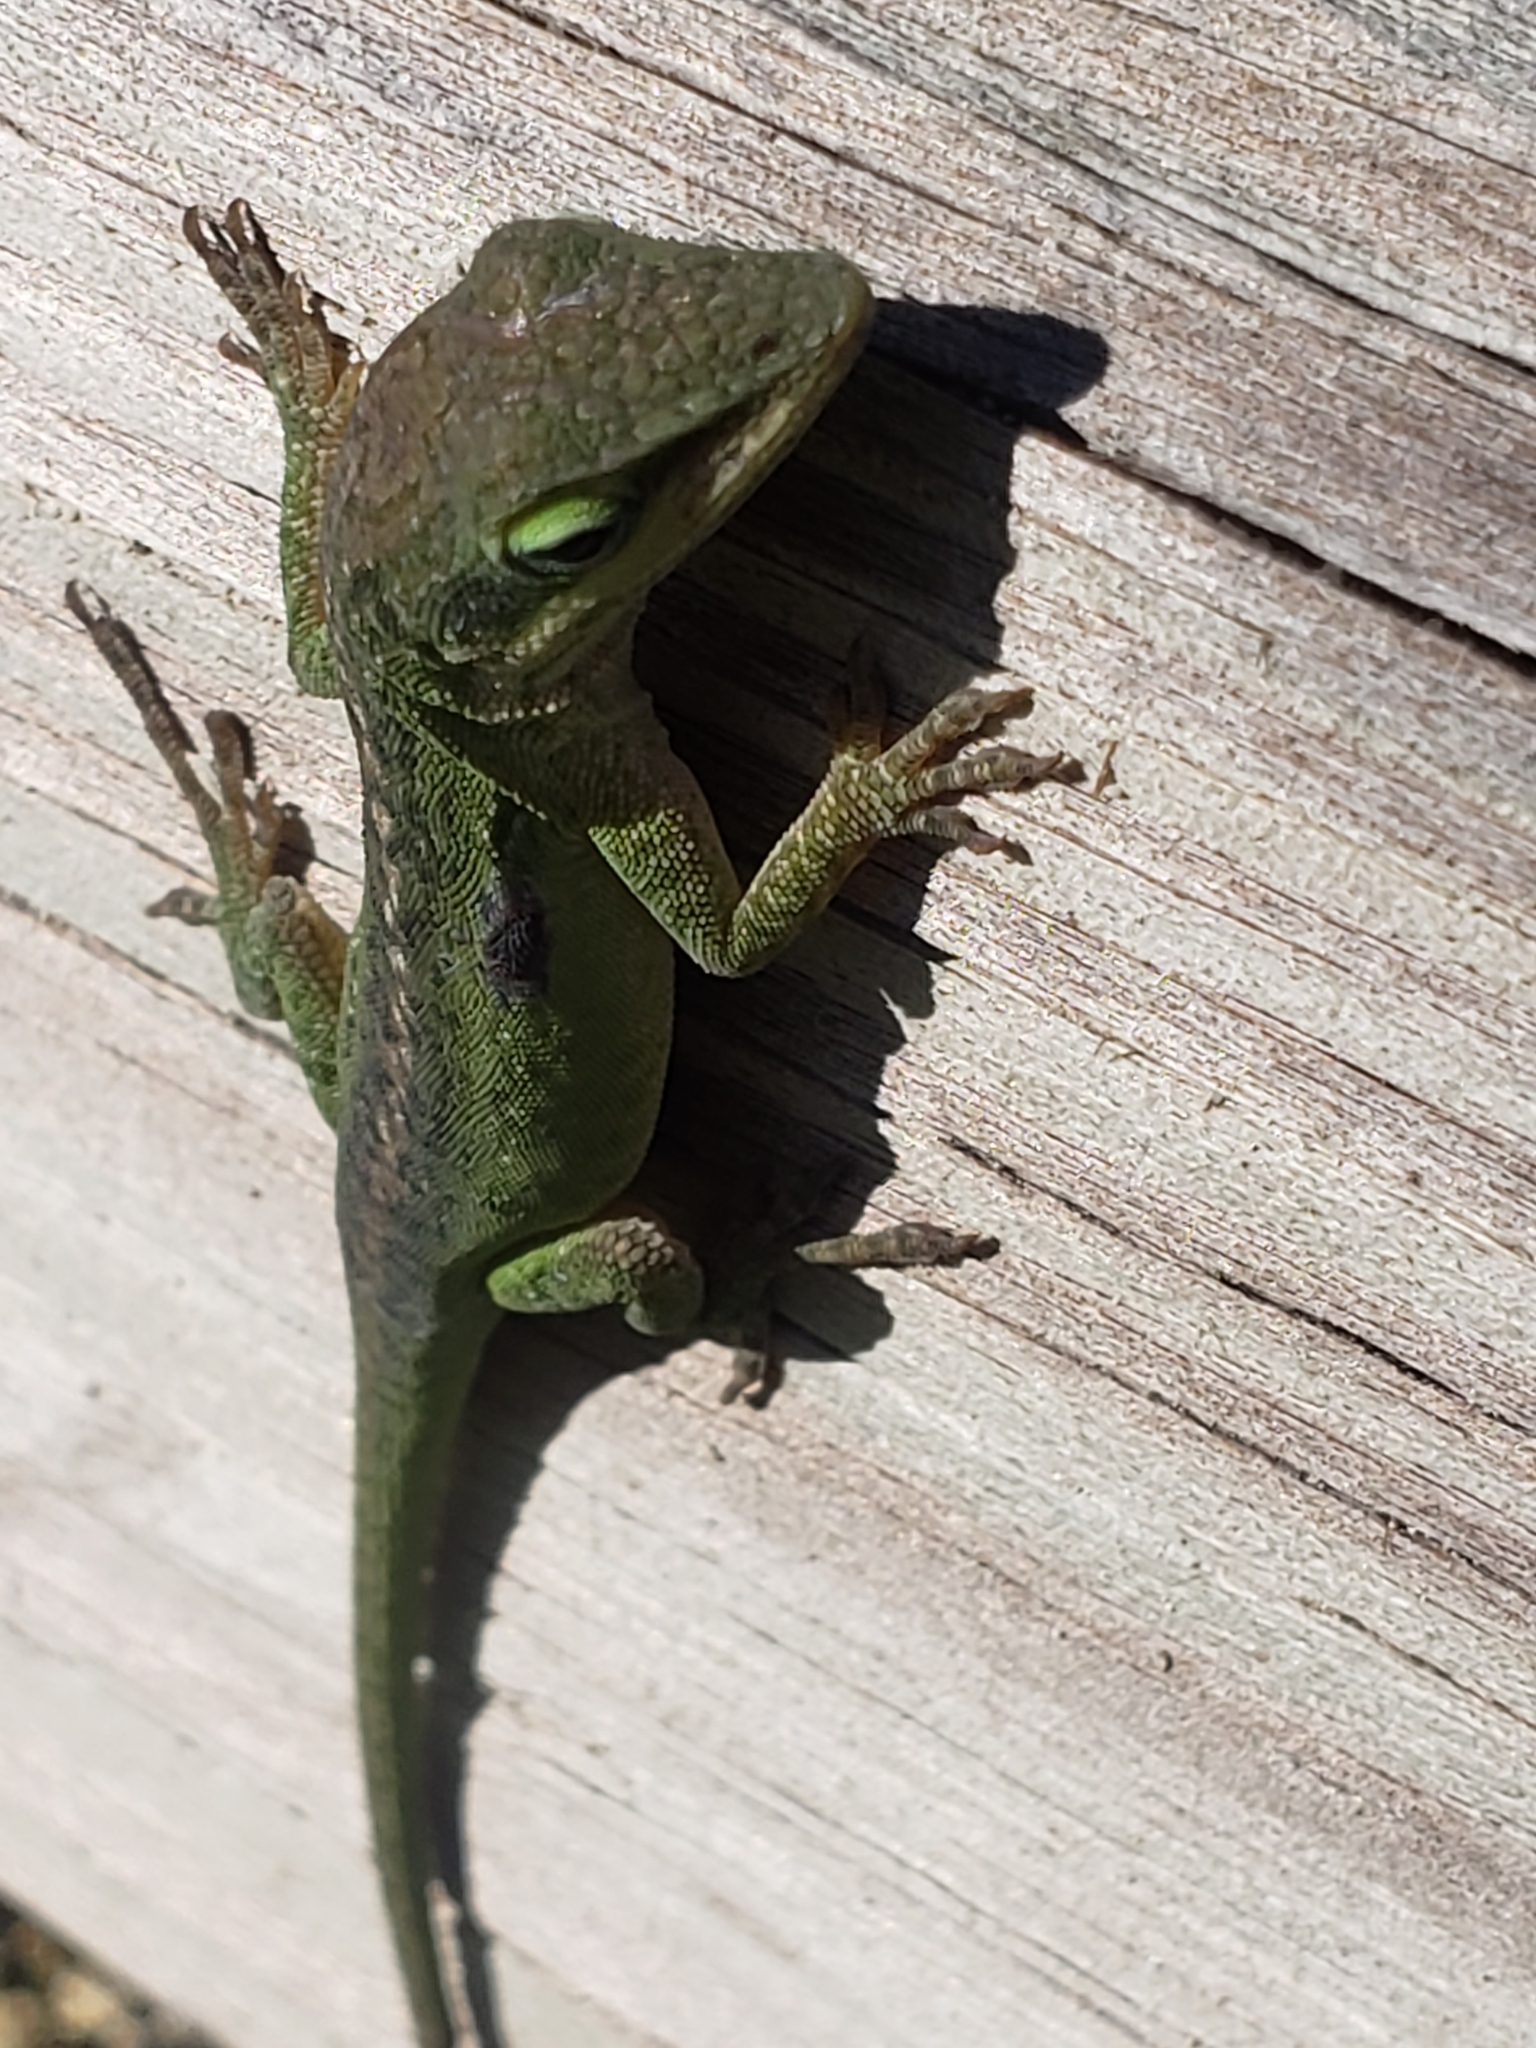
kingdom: Animalia
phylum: Chordata
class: Squamata
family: Dactyloidae
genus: Anolis
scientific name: Anolis carolinensis
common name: Green anole
